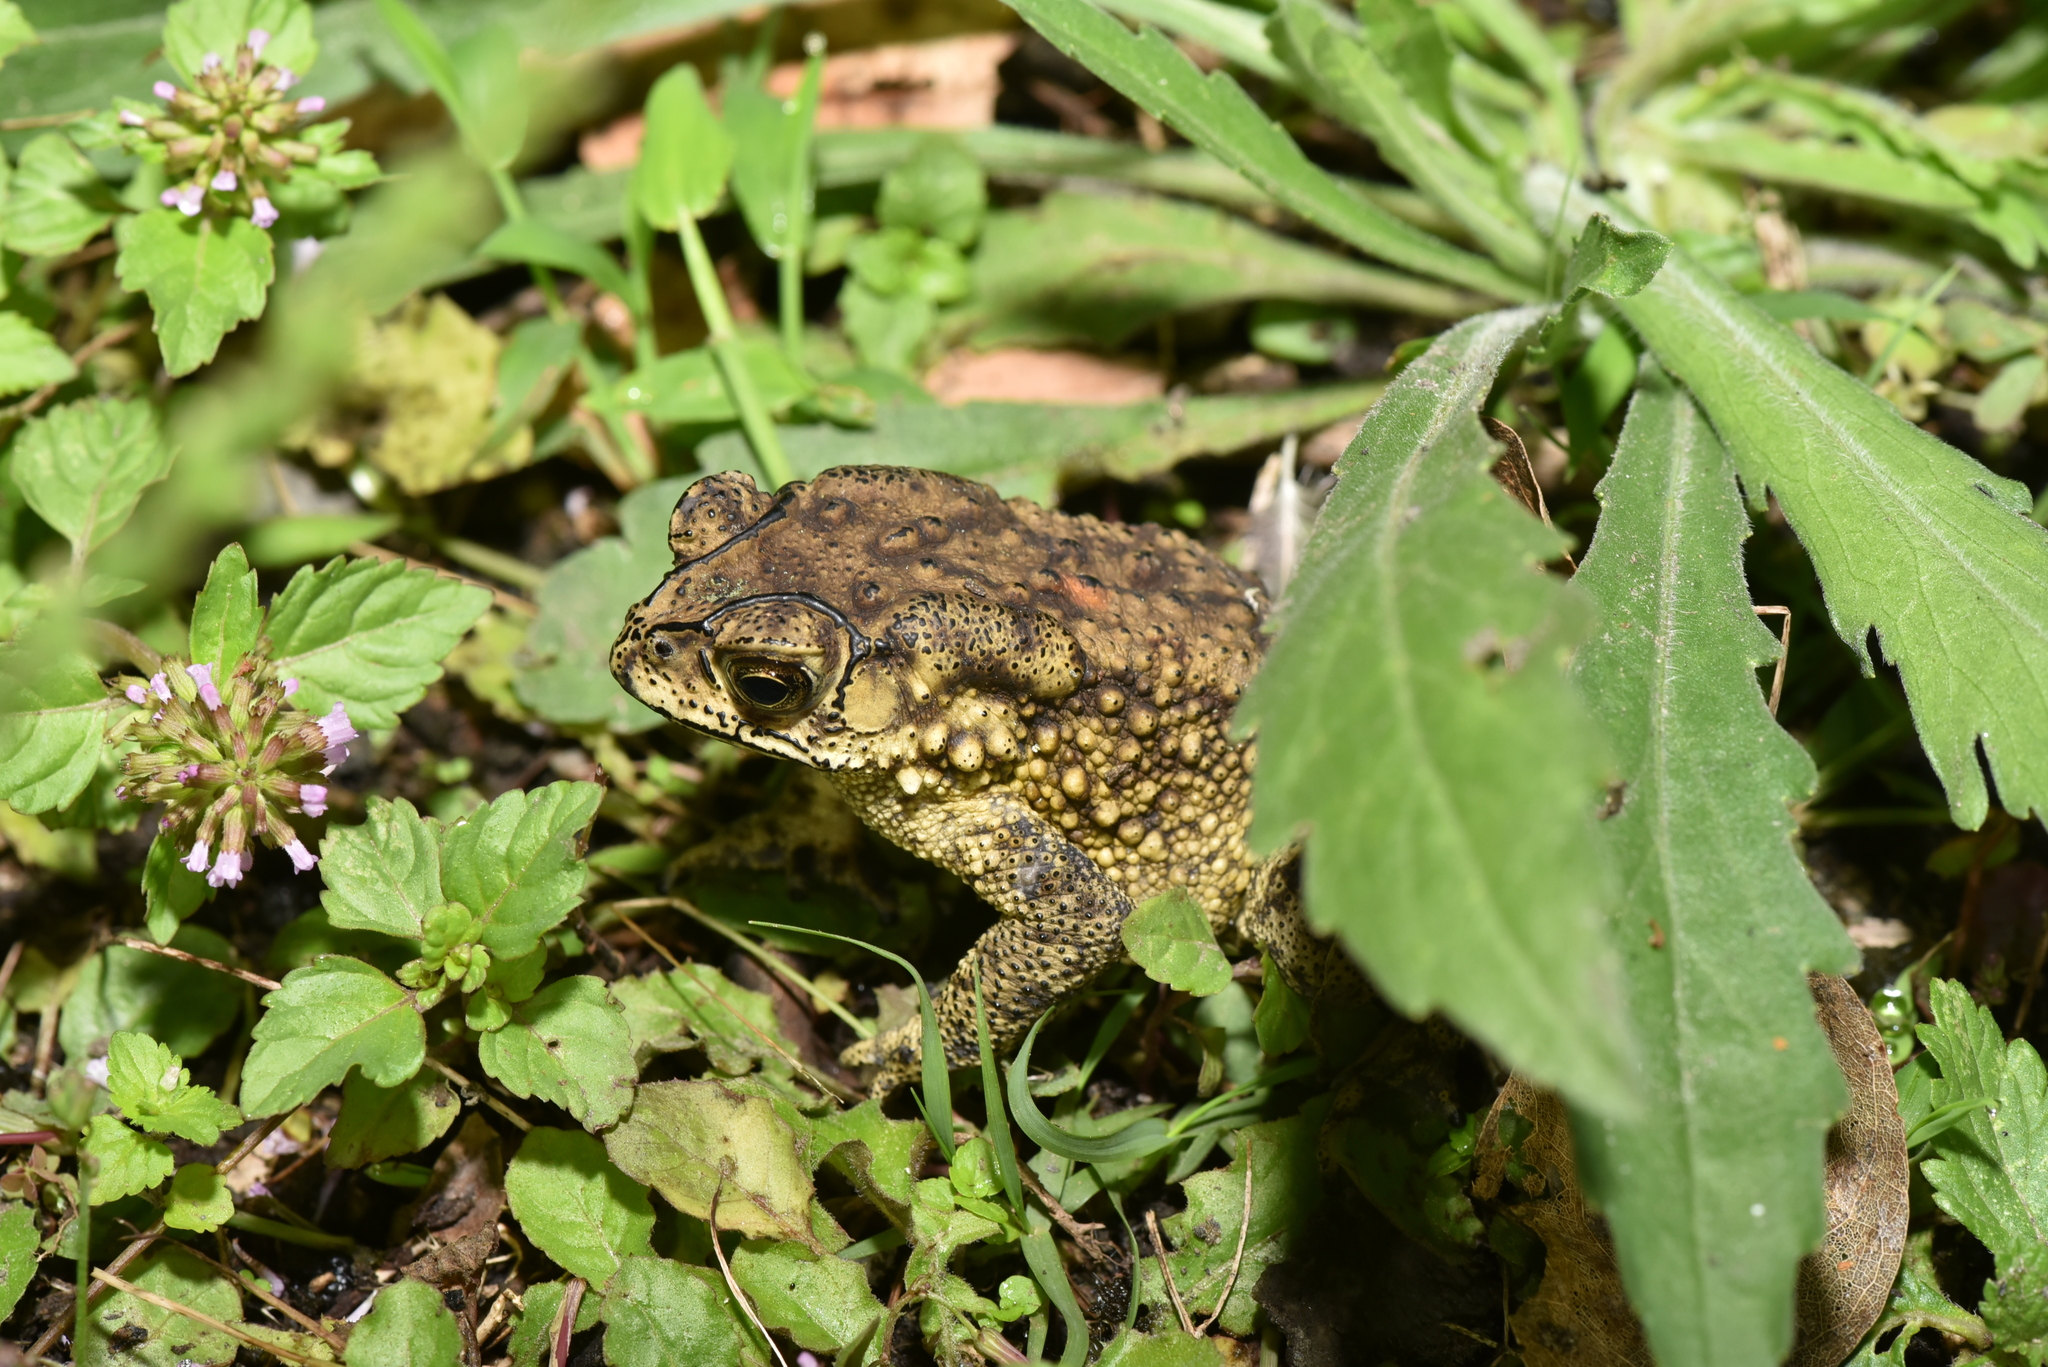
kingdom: Animalia
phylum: Chordata
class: Amphibia
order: Anura
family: Bufonidae
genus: Duttaphrynus
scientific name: Duttaphrynus melanostictus
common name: Common sunda toad
